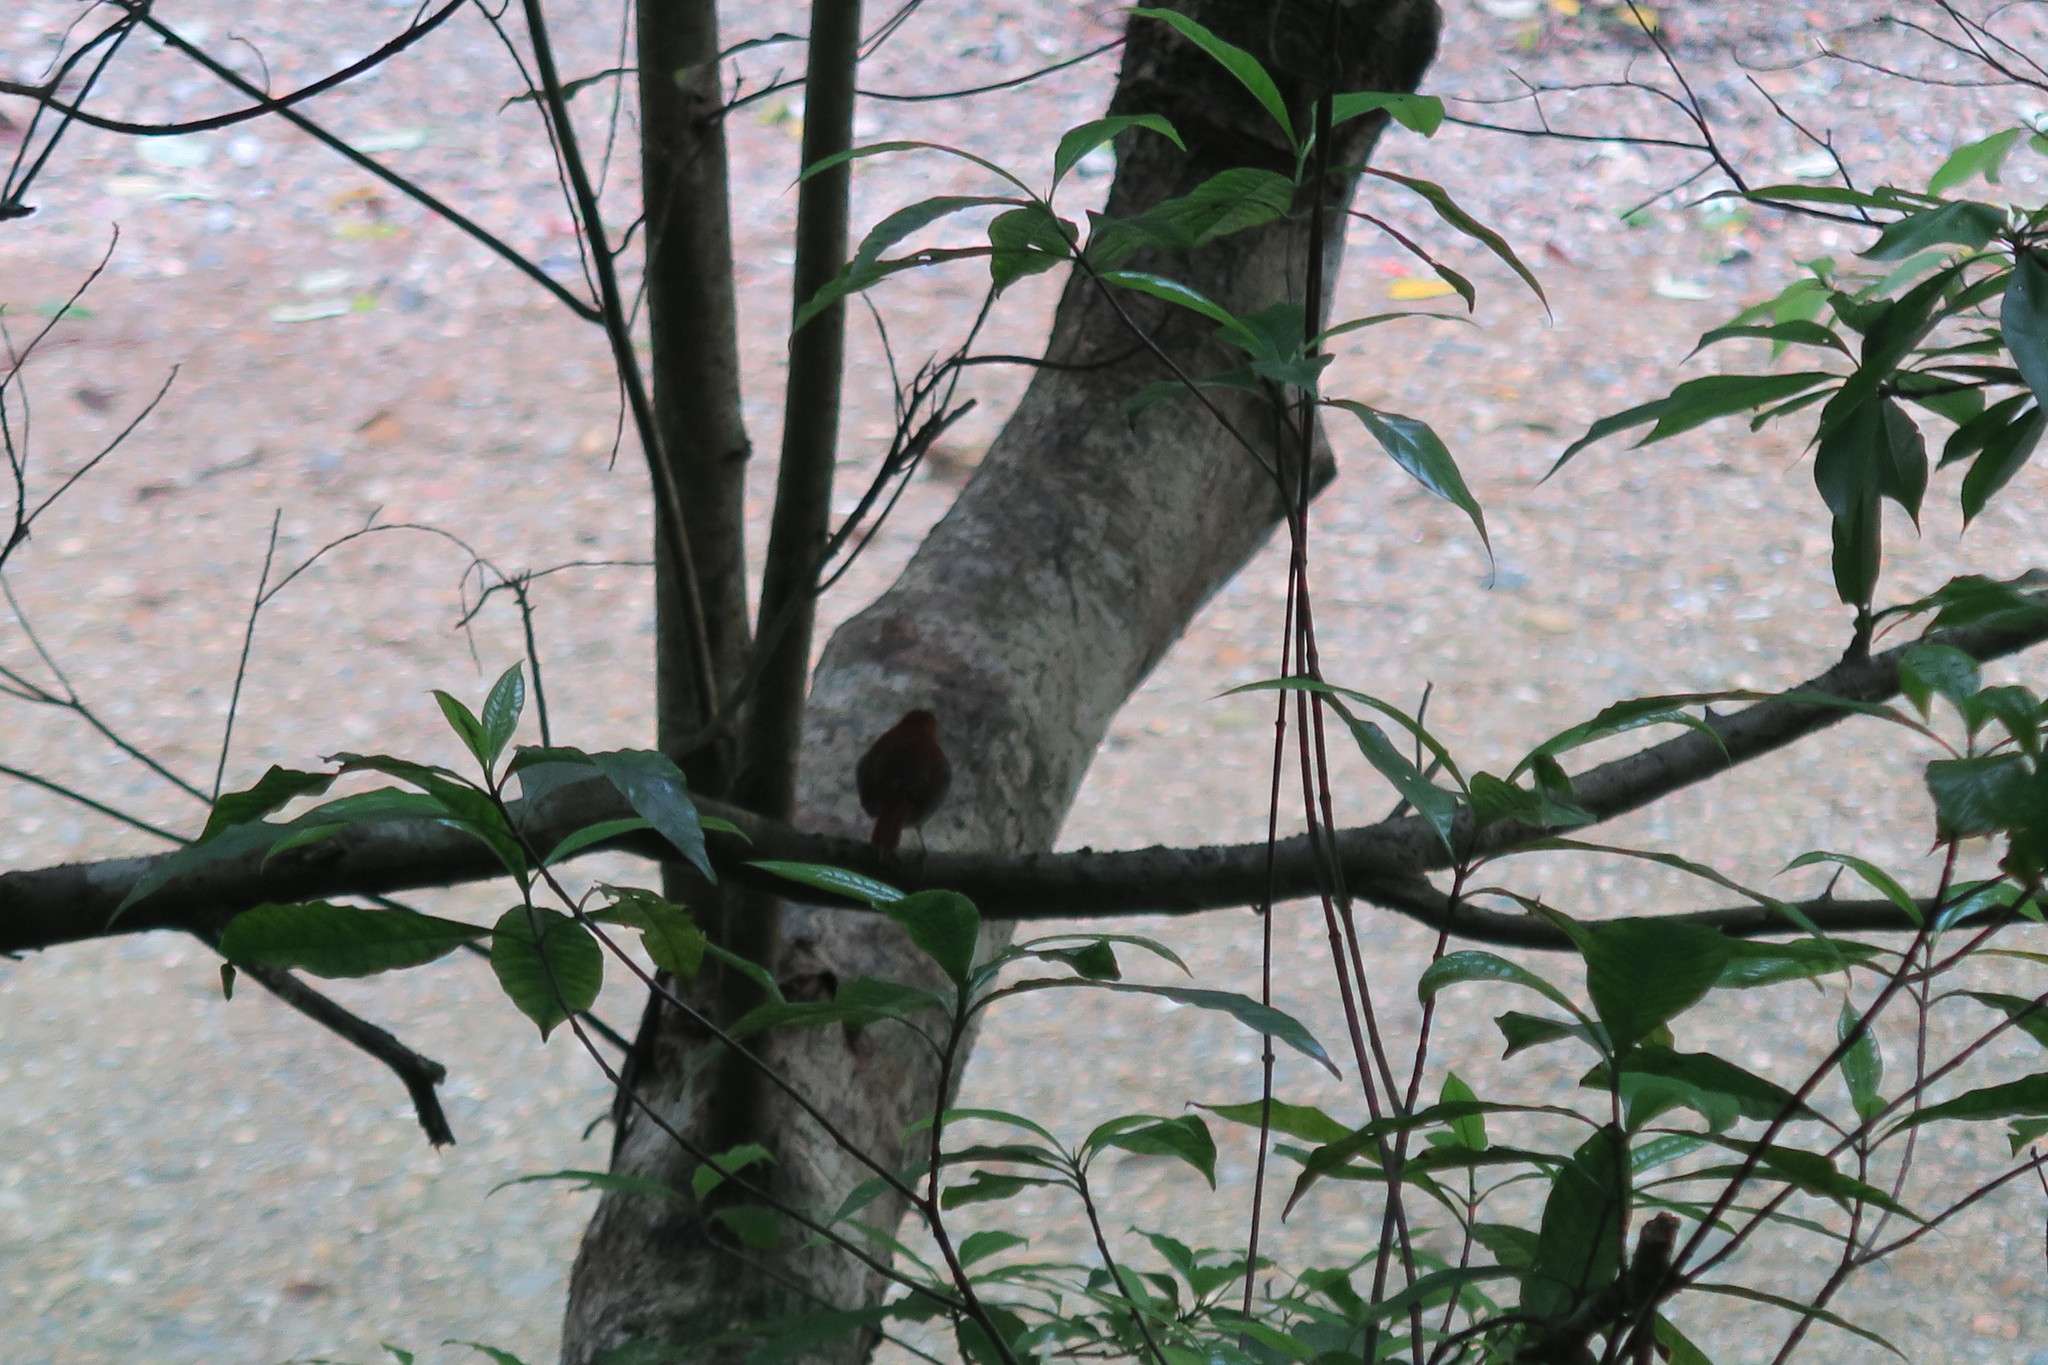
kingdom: Animalia
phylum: Chordata
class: Aves
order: Passeriformes
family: Muscicapidae
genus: Erithacus
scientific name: Erithacus komadori
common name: Ryukyu robin
